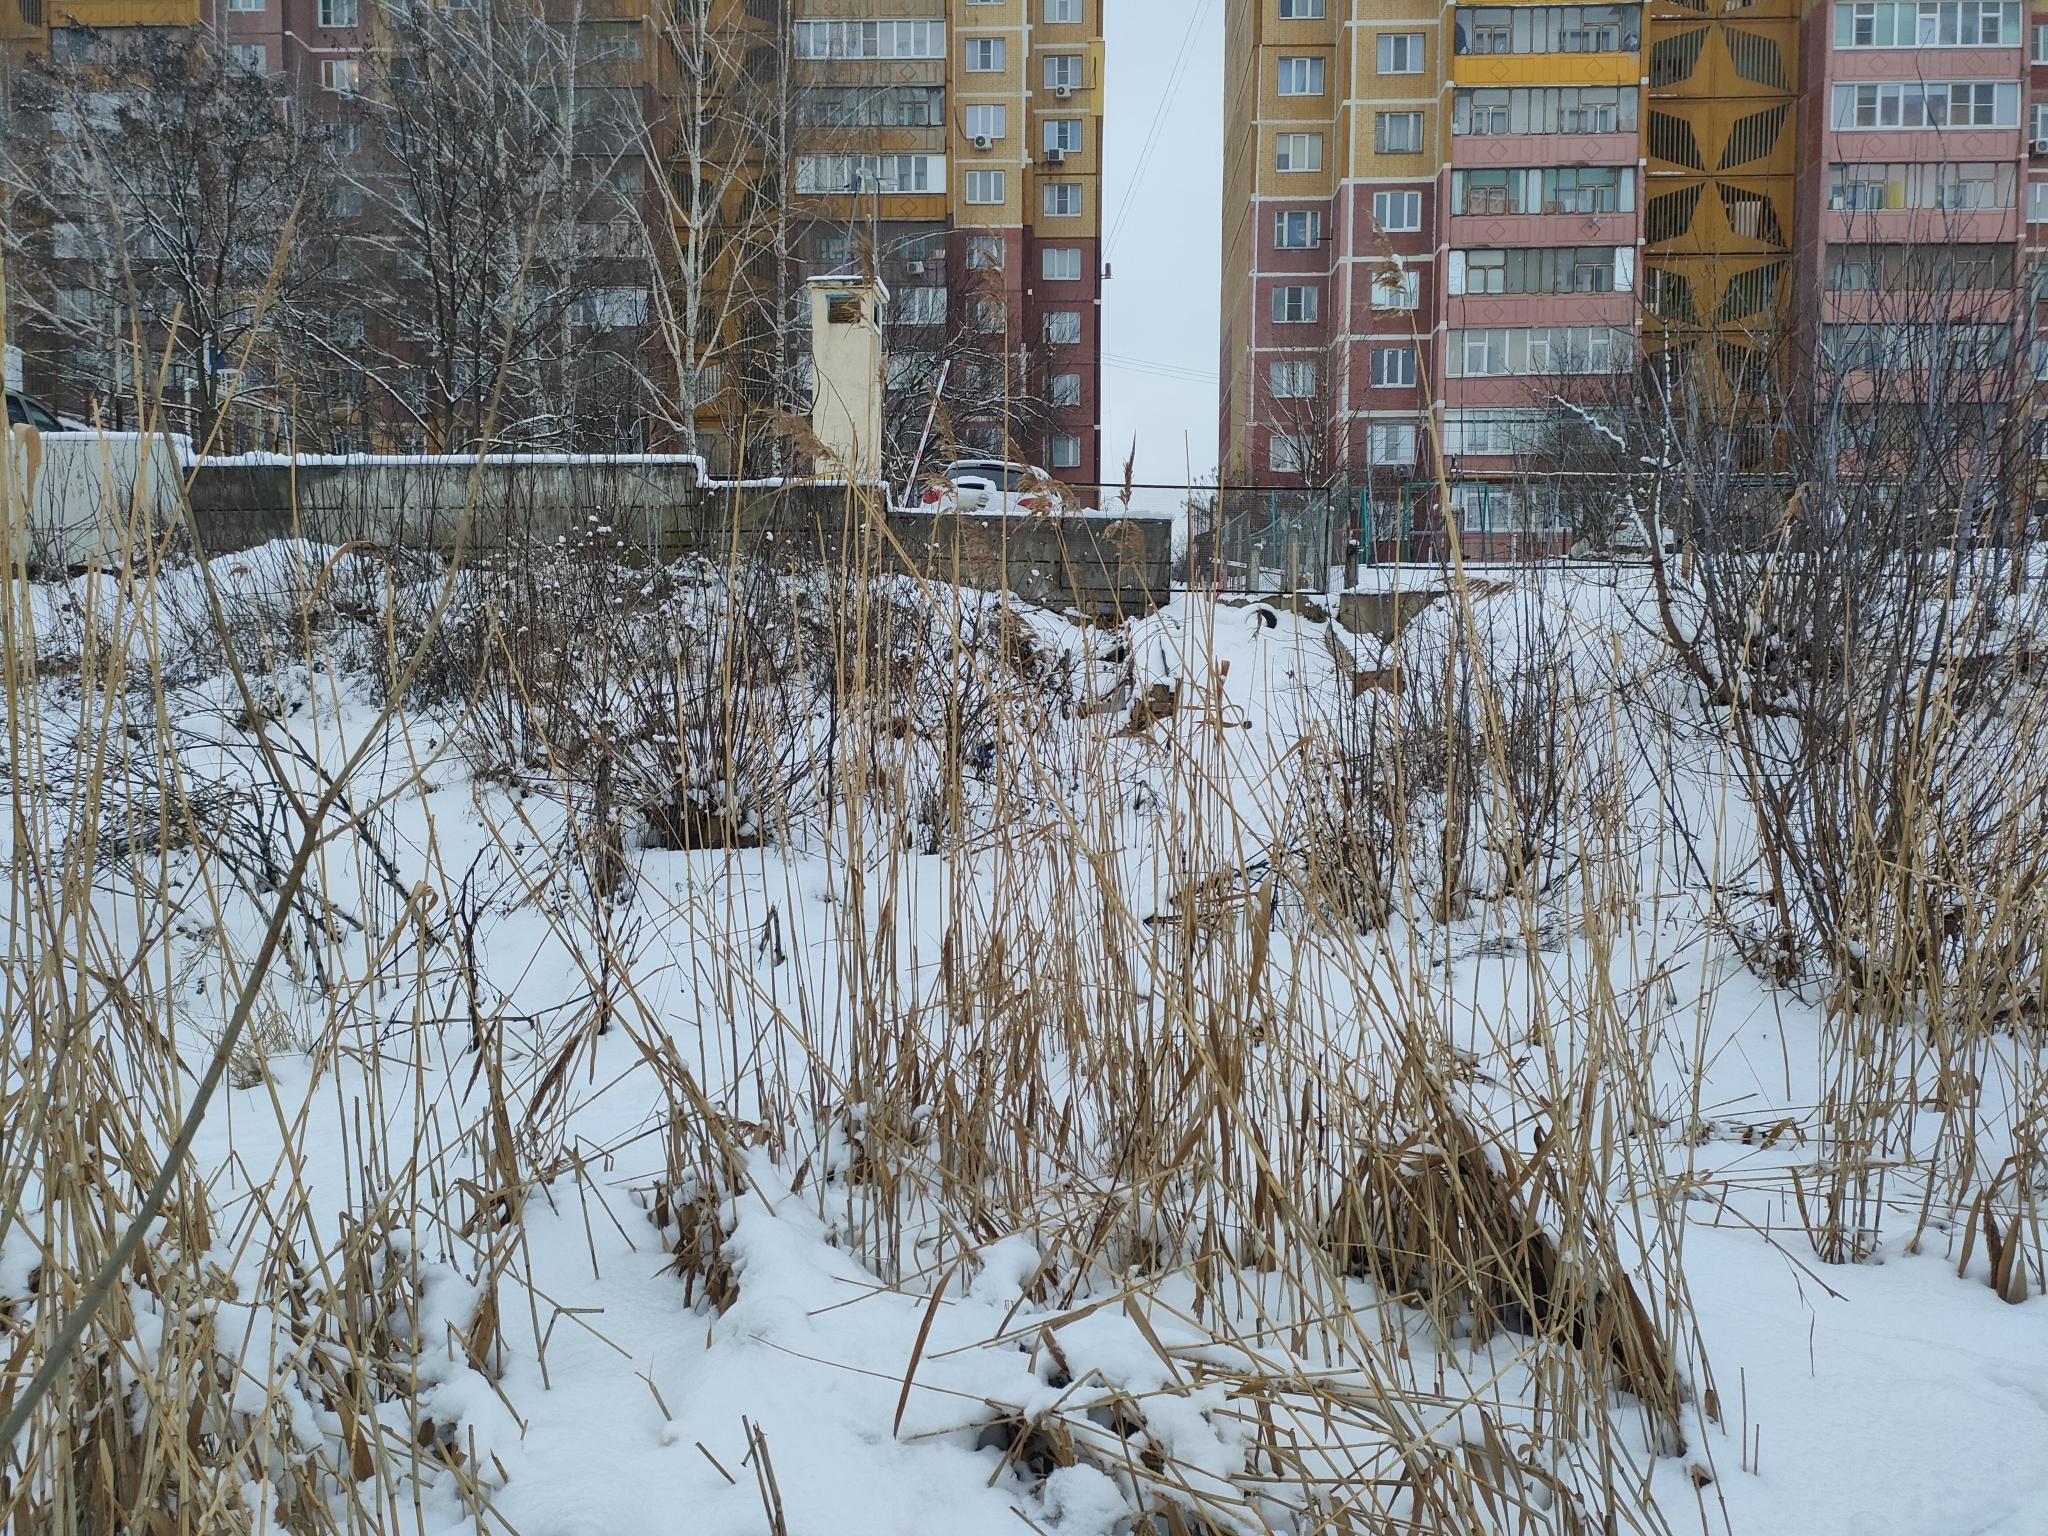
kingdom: Plantae
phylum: Tracheophyta
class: Liliopsida
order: Poales
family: Poaceae
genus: Phragmites
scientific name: Phragmites australis
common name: Common reed
